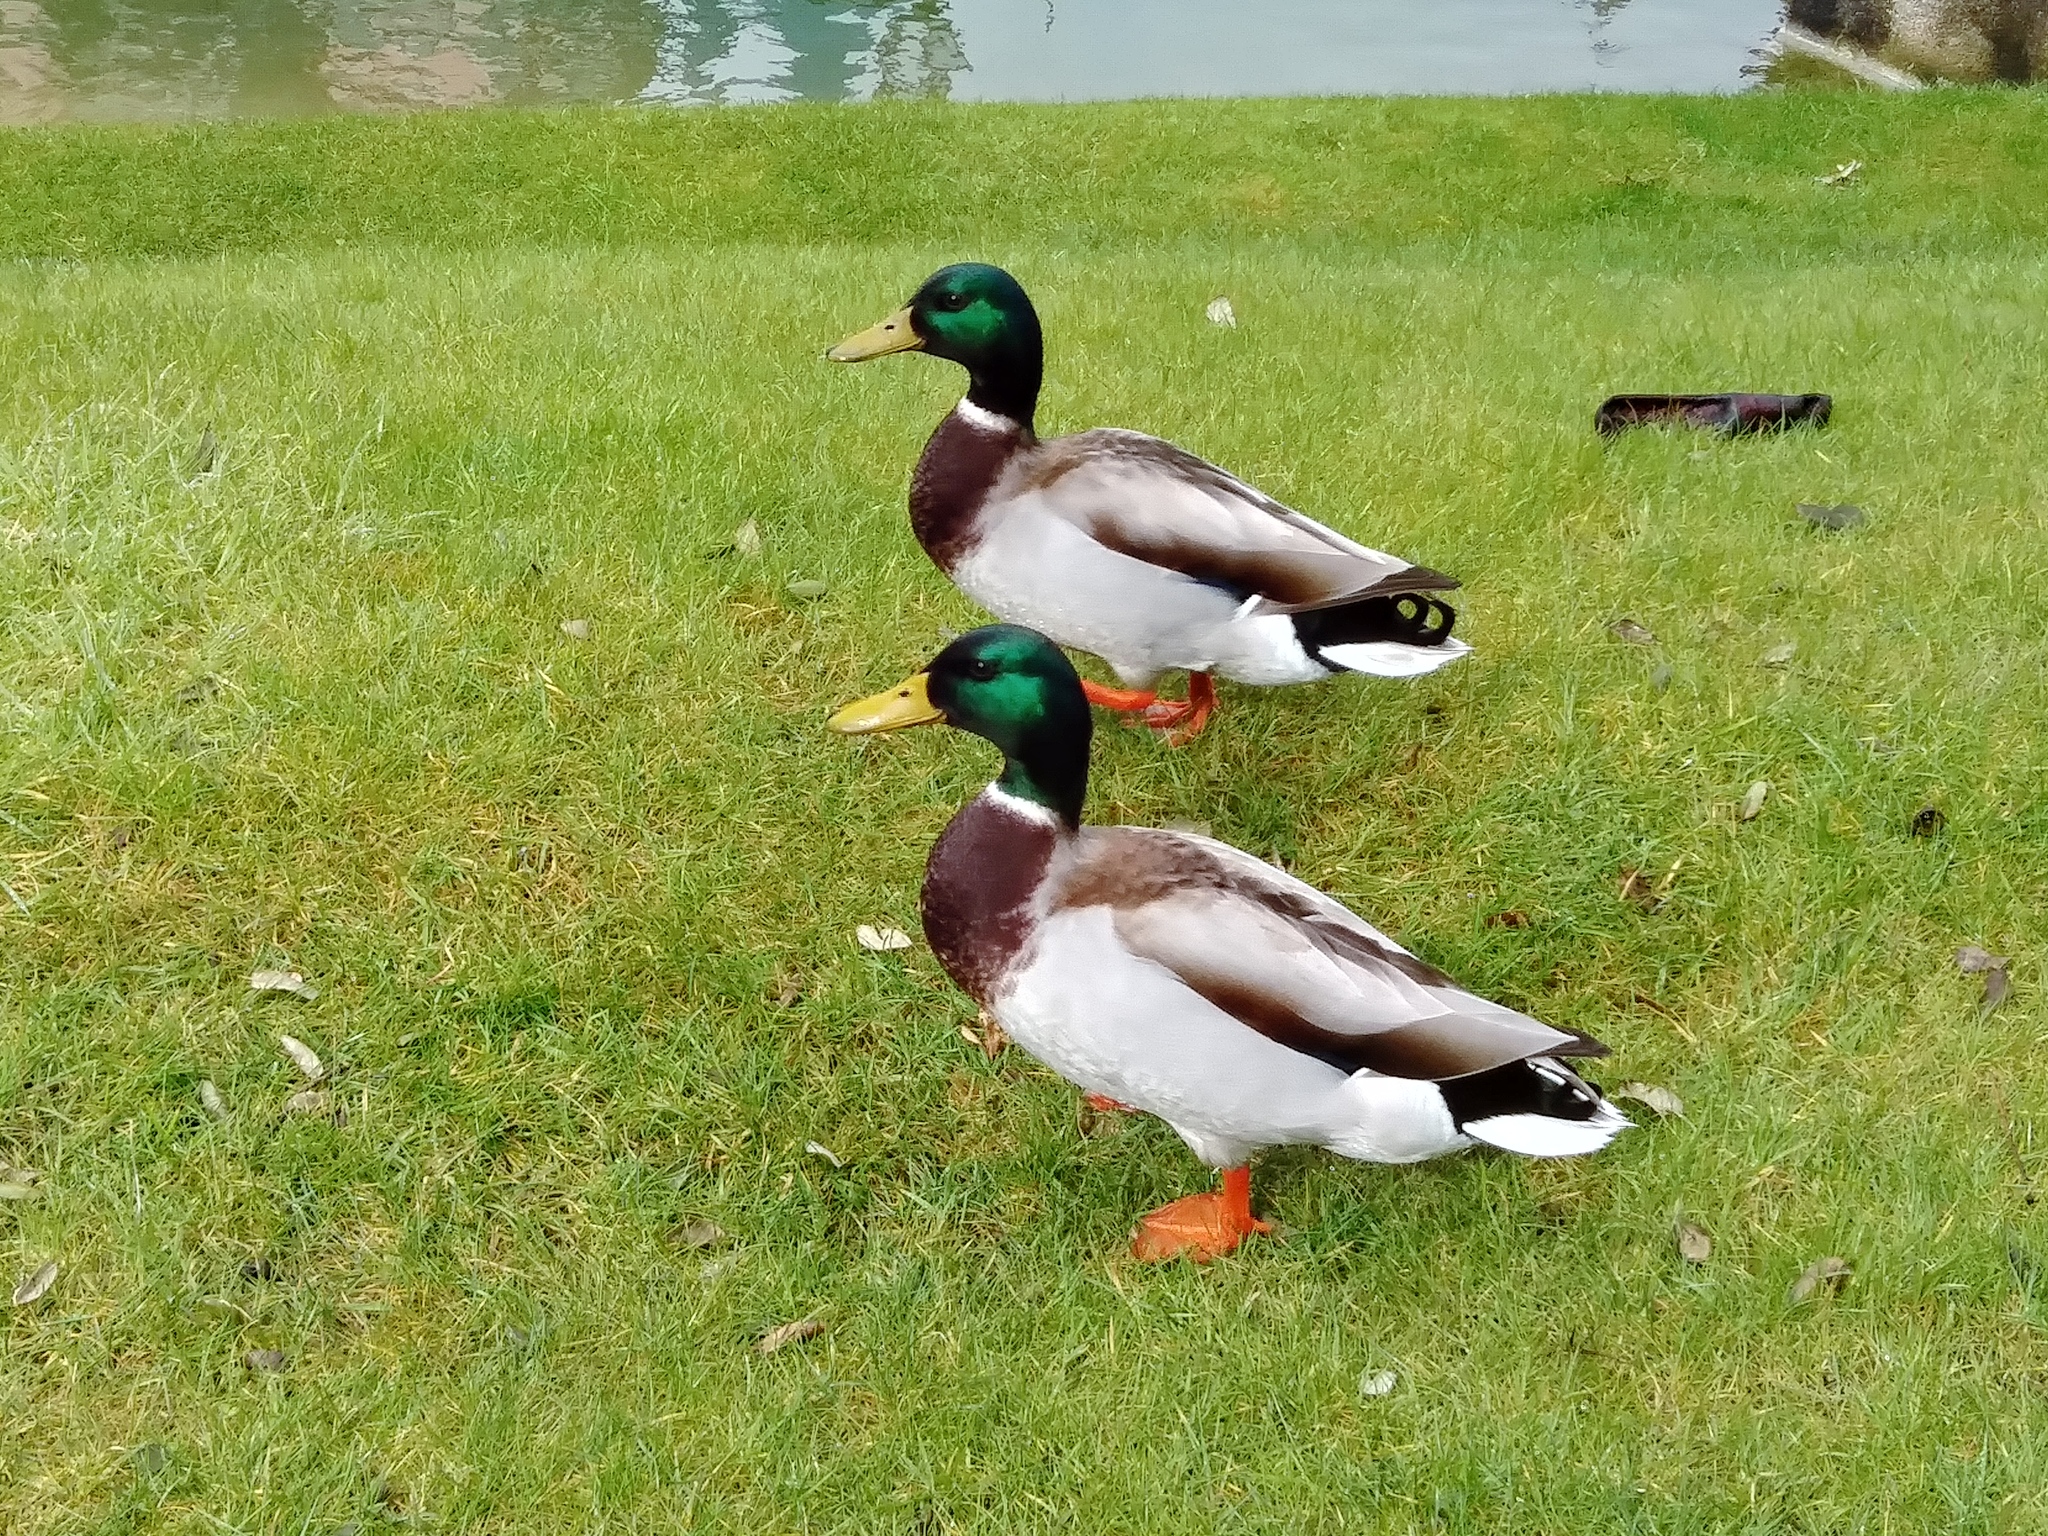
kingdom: Animalia
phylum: Chordata
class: Aves
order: Anseriformes
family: Anatidae
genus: Anas
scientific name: Anas platyrhynchos
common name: Mallard
